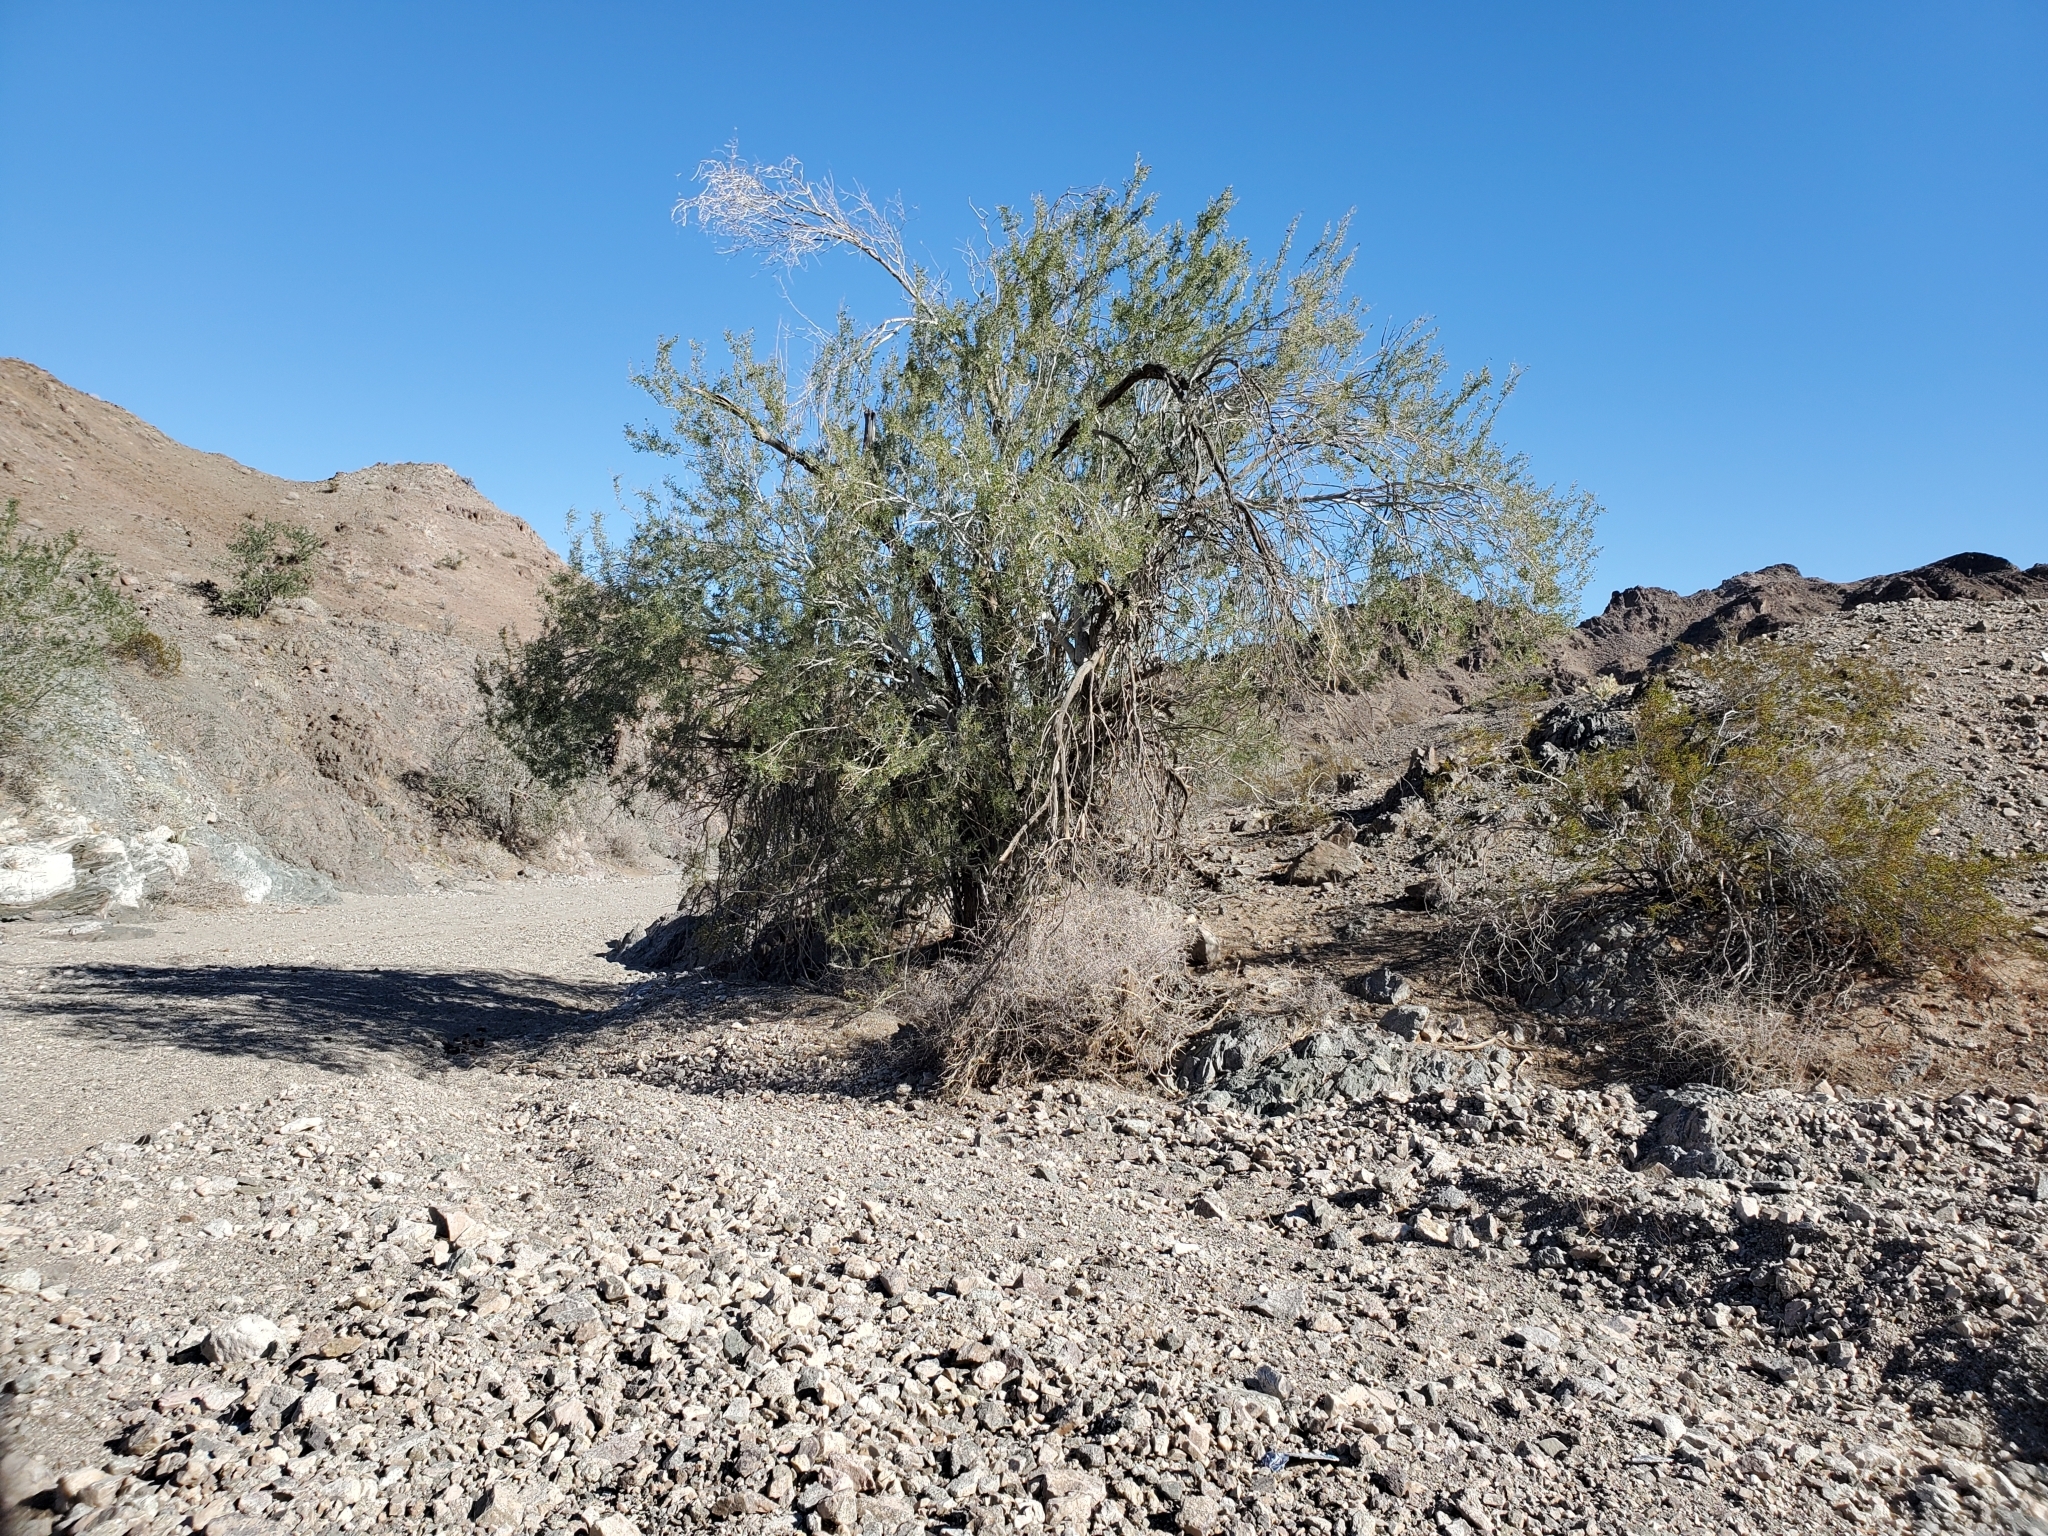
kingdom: Plantae
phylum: Tracheophyta
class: Magnoliopsida
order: Fabales
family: Fabaceae
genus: Olneya
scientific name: Olneya tesota
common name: Desert ironwood
